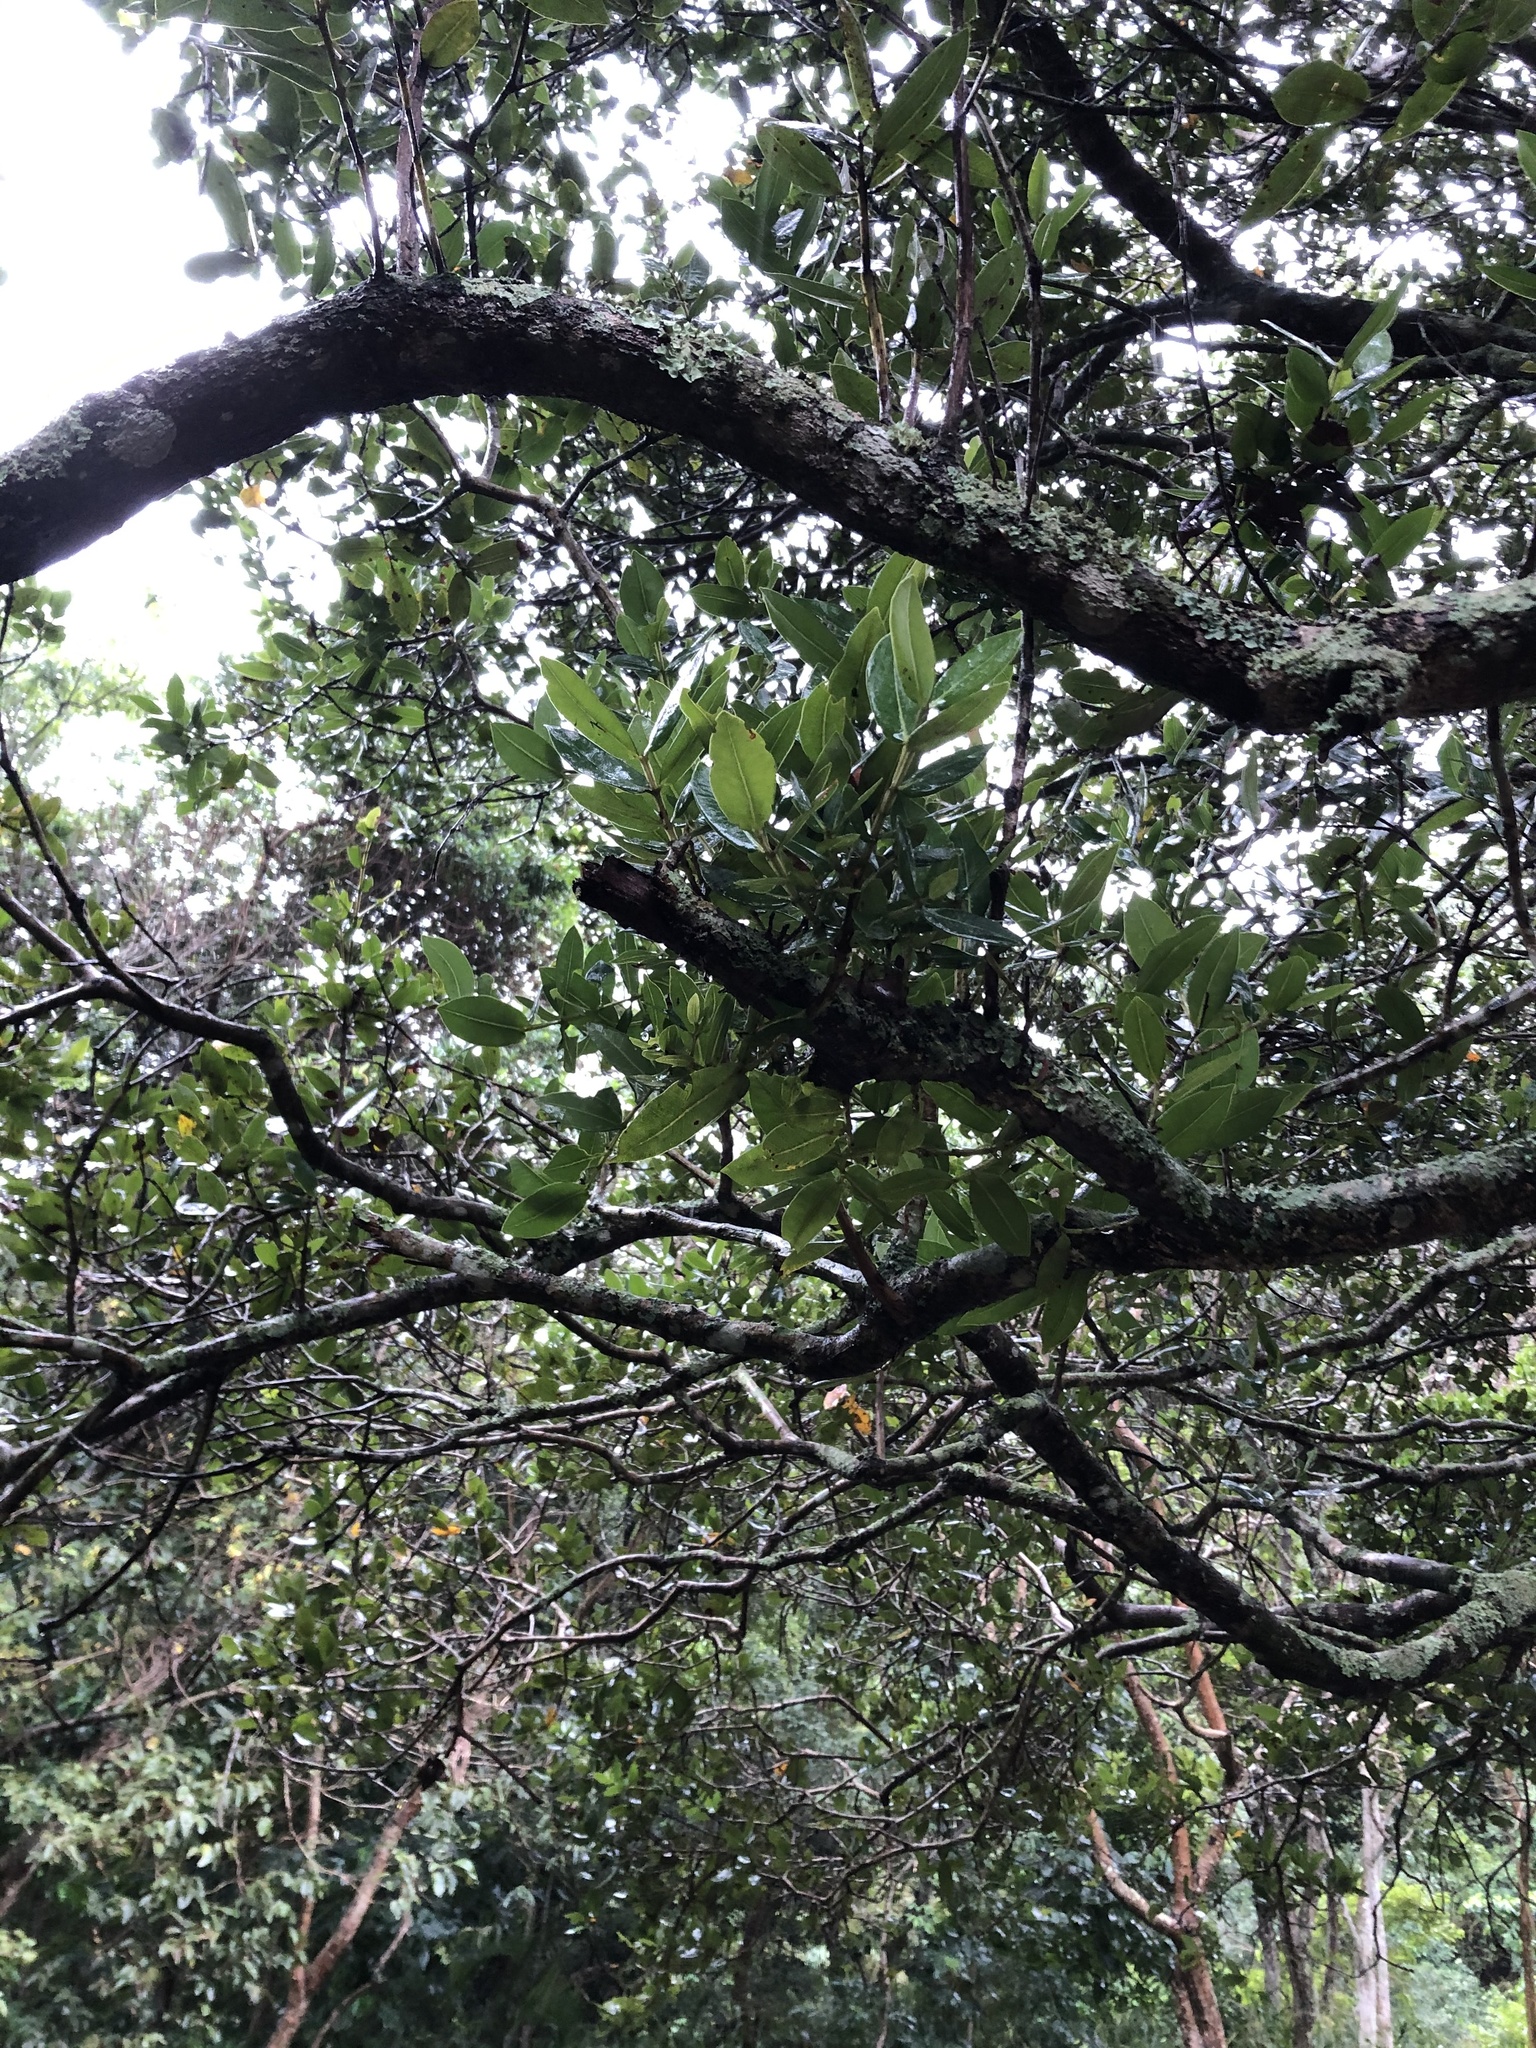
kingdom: Plantae
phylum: Tracheophyta
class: Magnoliopsida
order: Myrtales
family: Myrtaceae
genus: Syzygium
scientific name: Syzygium cordatum
